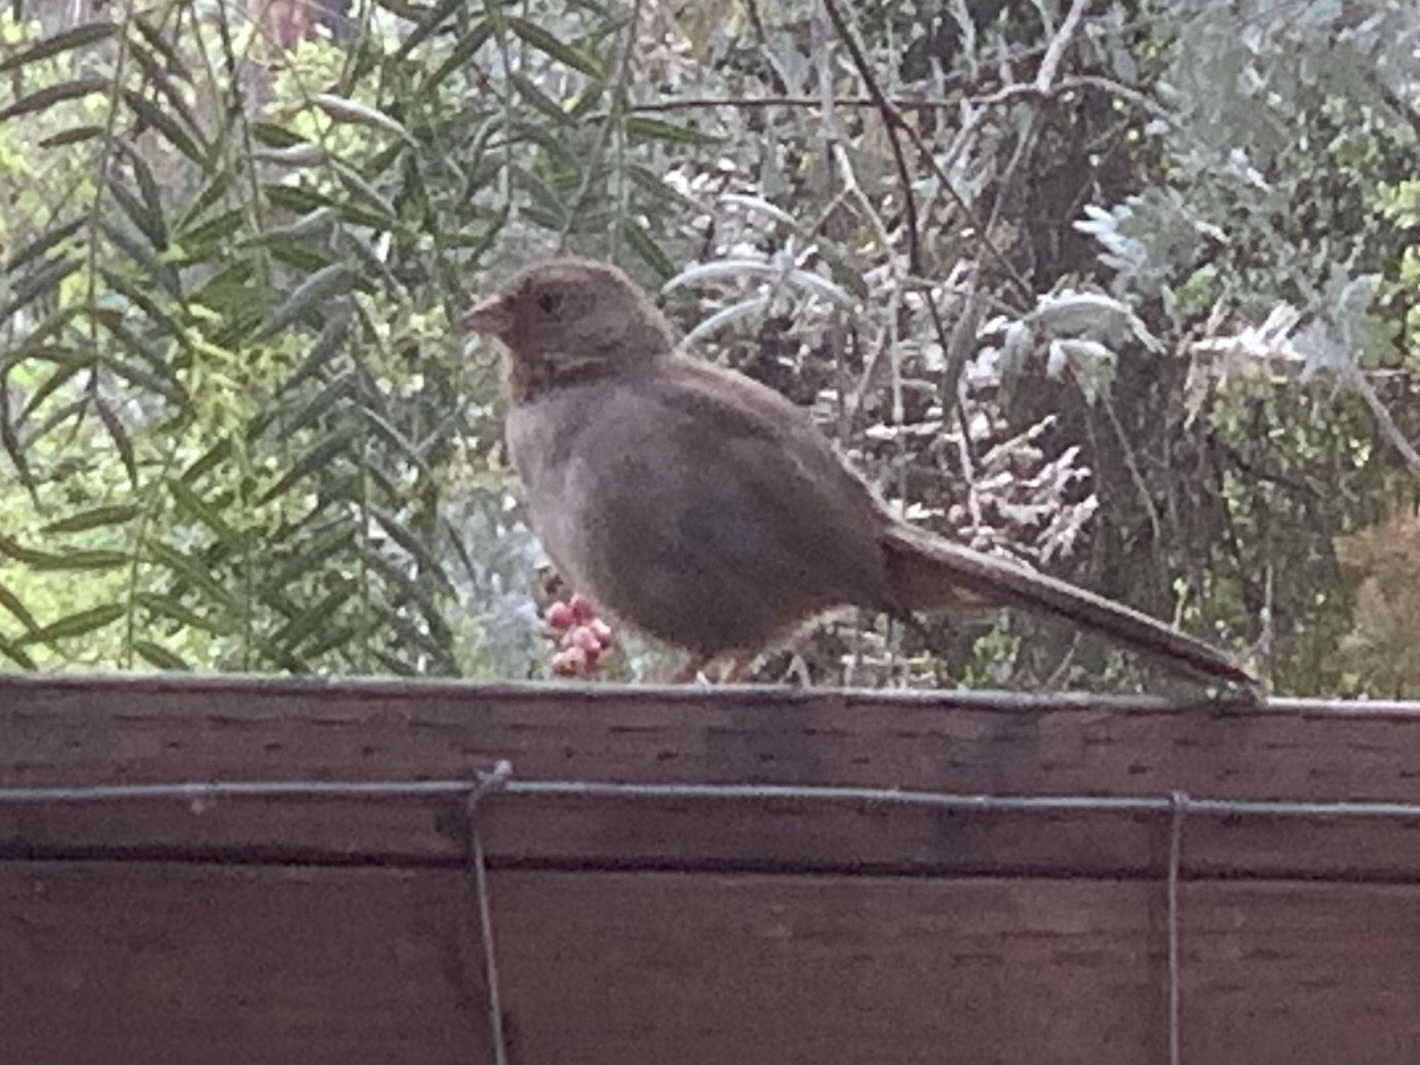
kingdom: Animalia
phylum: Chordata
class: Aves
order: Passeriformes
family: Passerellidae
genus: Melozone
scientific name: Melozone crissalis
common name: California towhee
